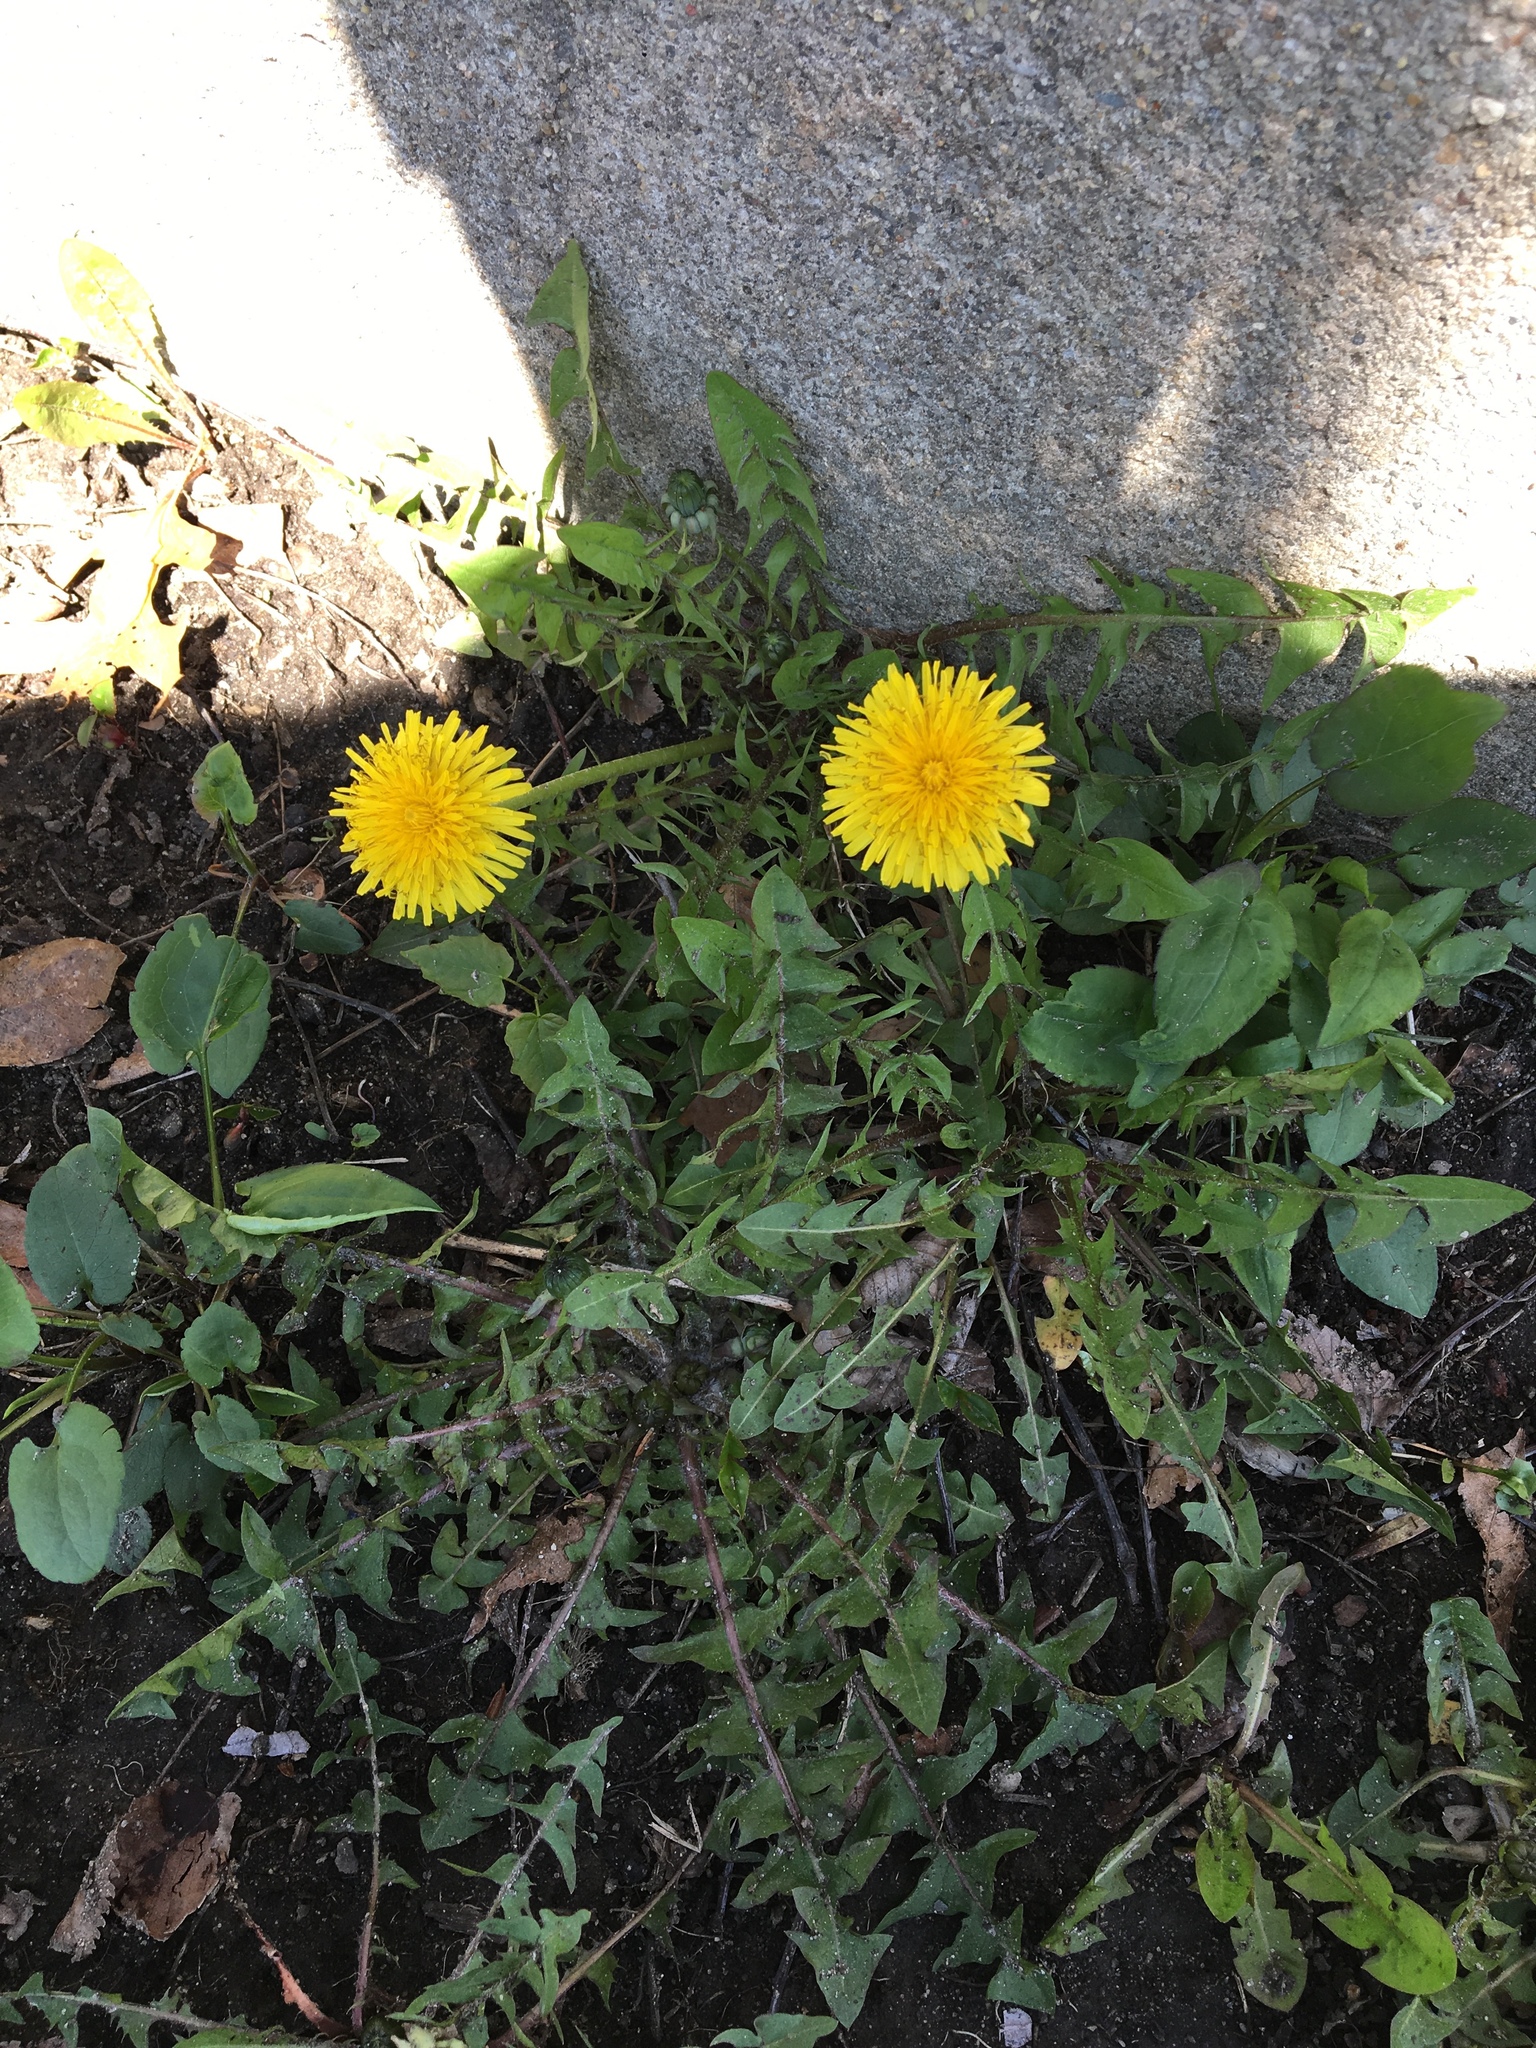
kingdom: Plantae
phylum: Tracheophyta
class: Magnoliopsida
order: Asterales
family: Asteraceae
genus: Taraxacum
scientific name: Taraxacum officinale
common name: Common dandelion
